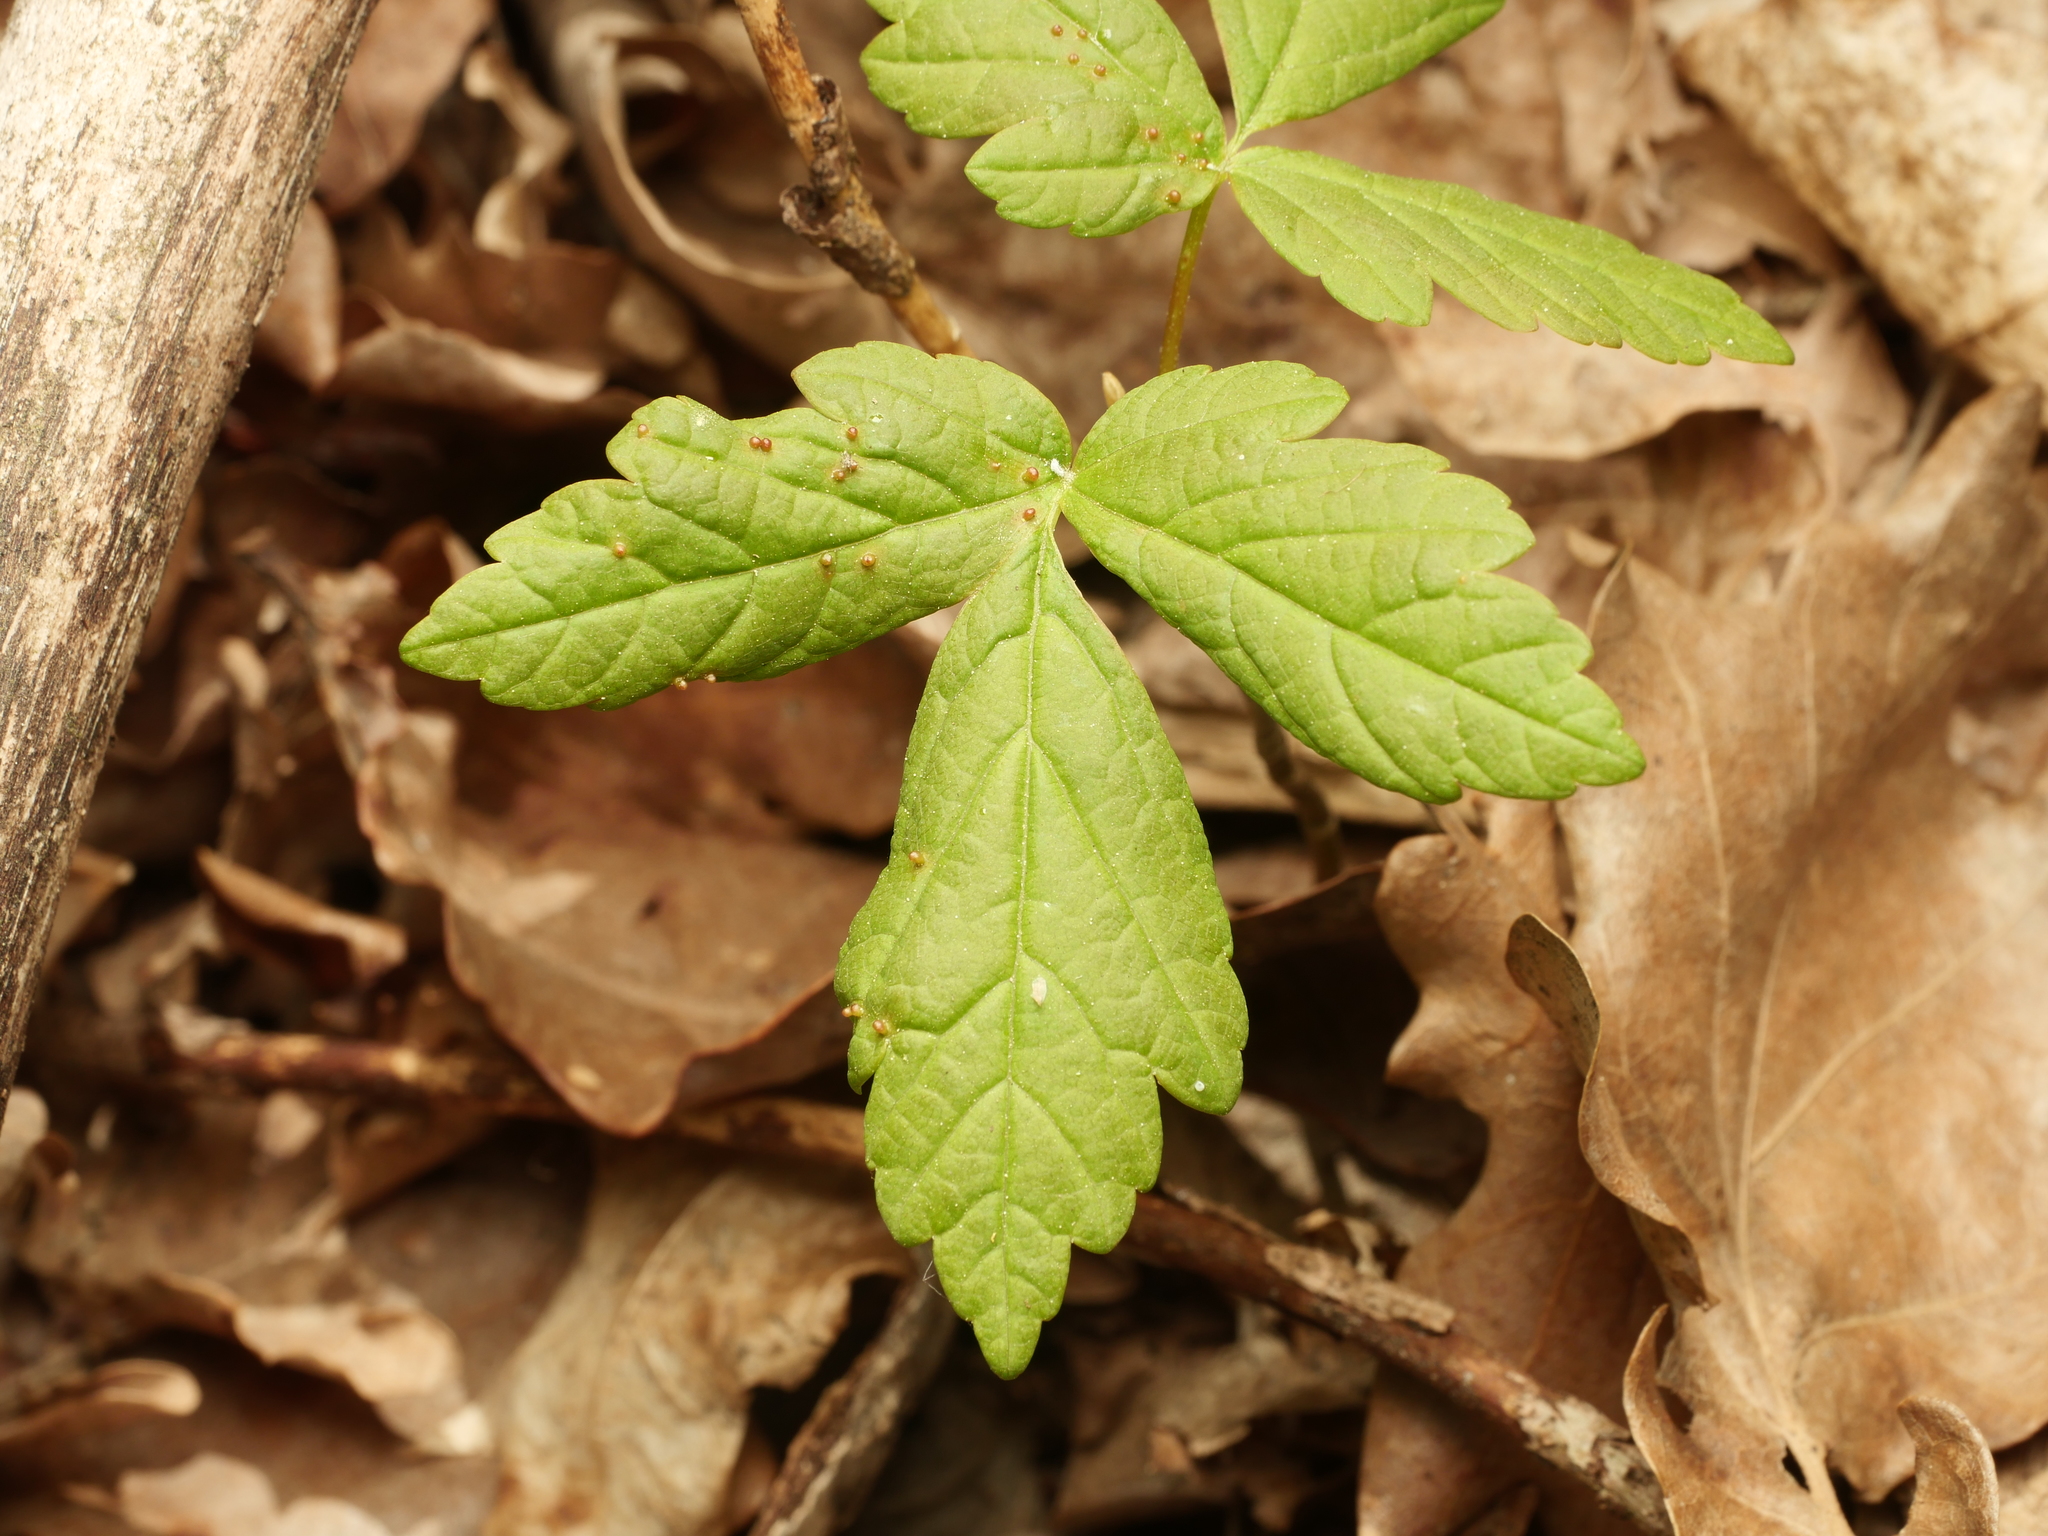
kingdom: Plantae
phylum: Tracheophyta
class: Magnoliopsida
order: Sapindales
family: Sapindaceae
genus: Acer
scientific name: Acer pseudoplatanus
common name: Sycamore
